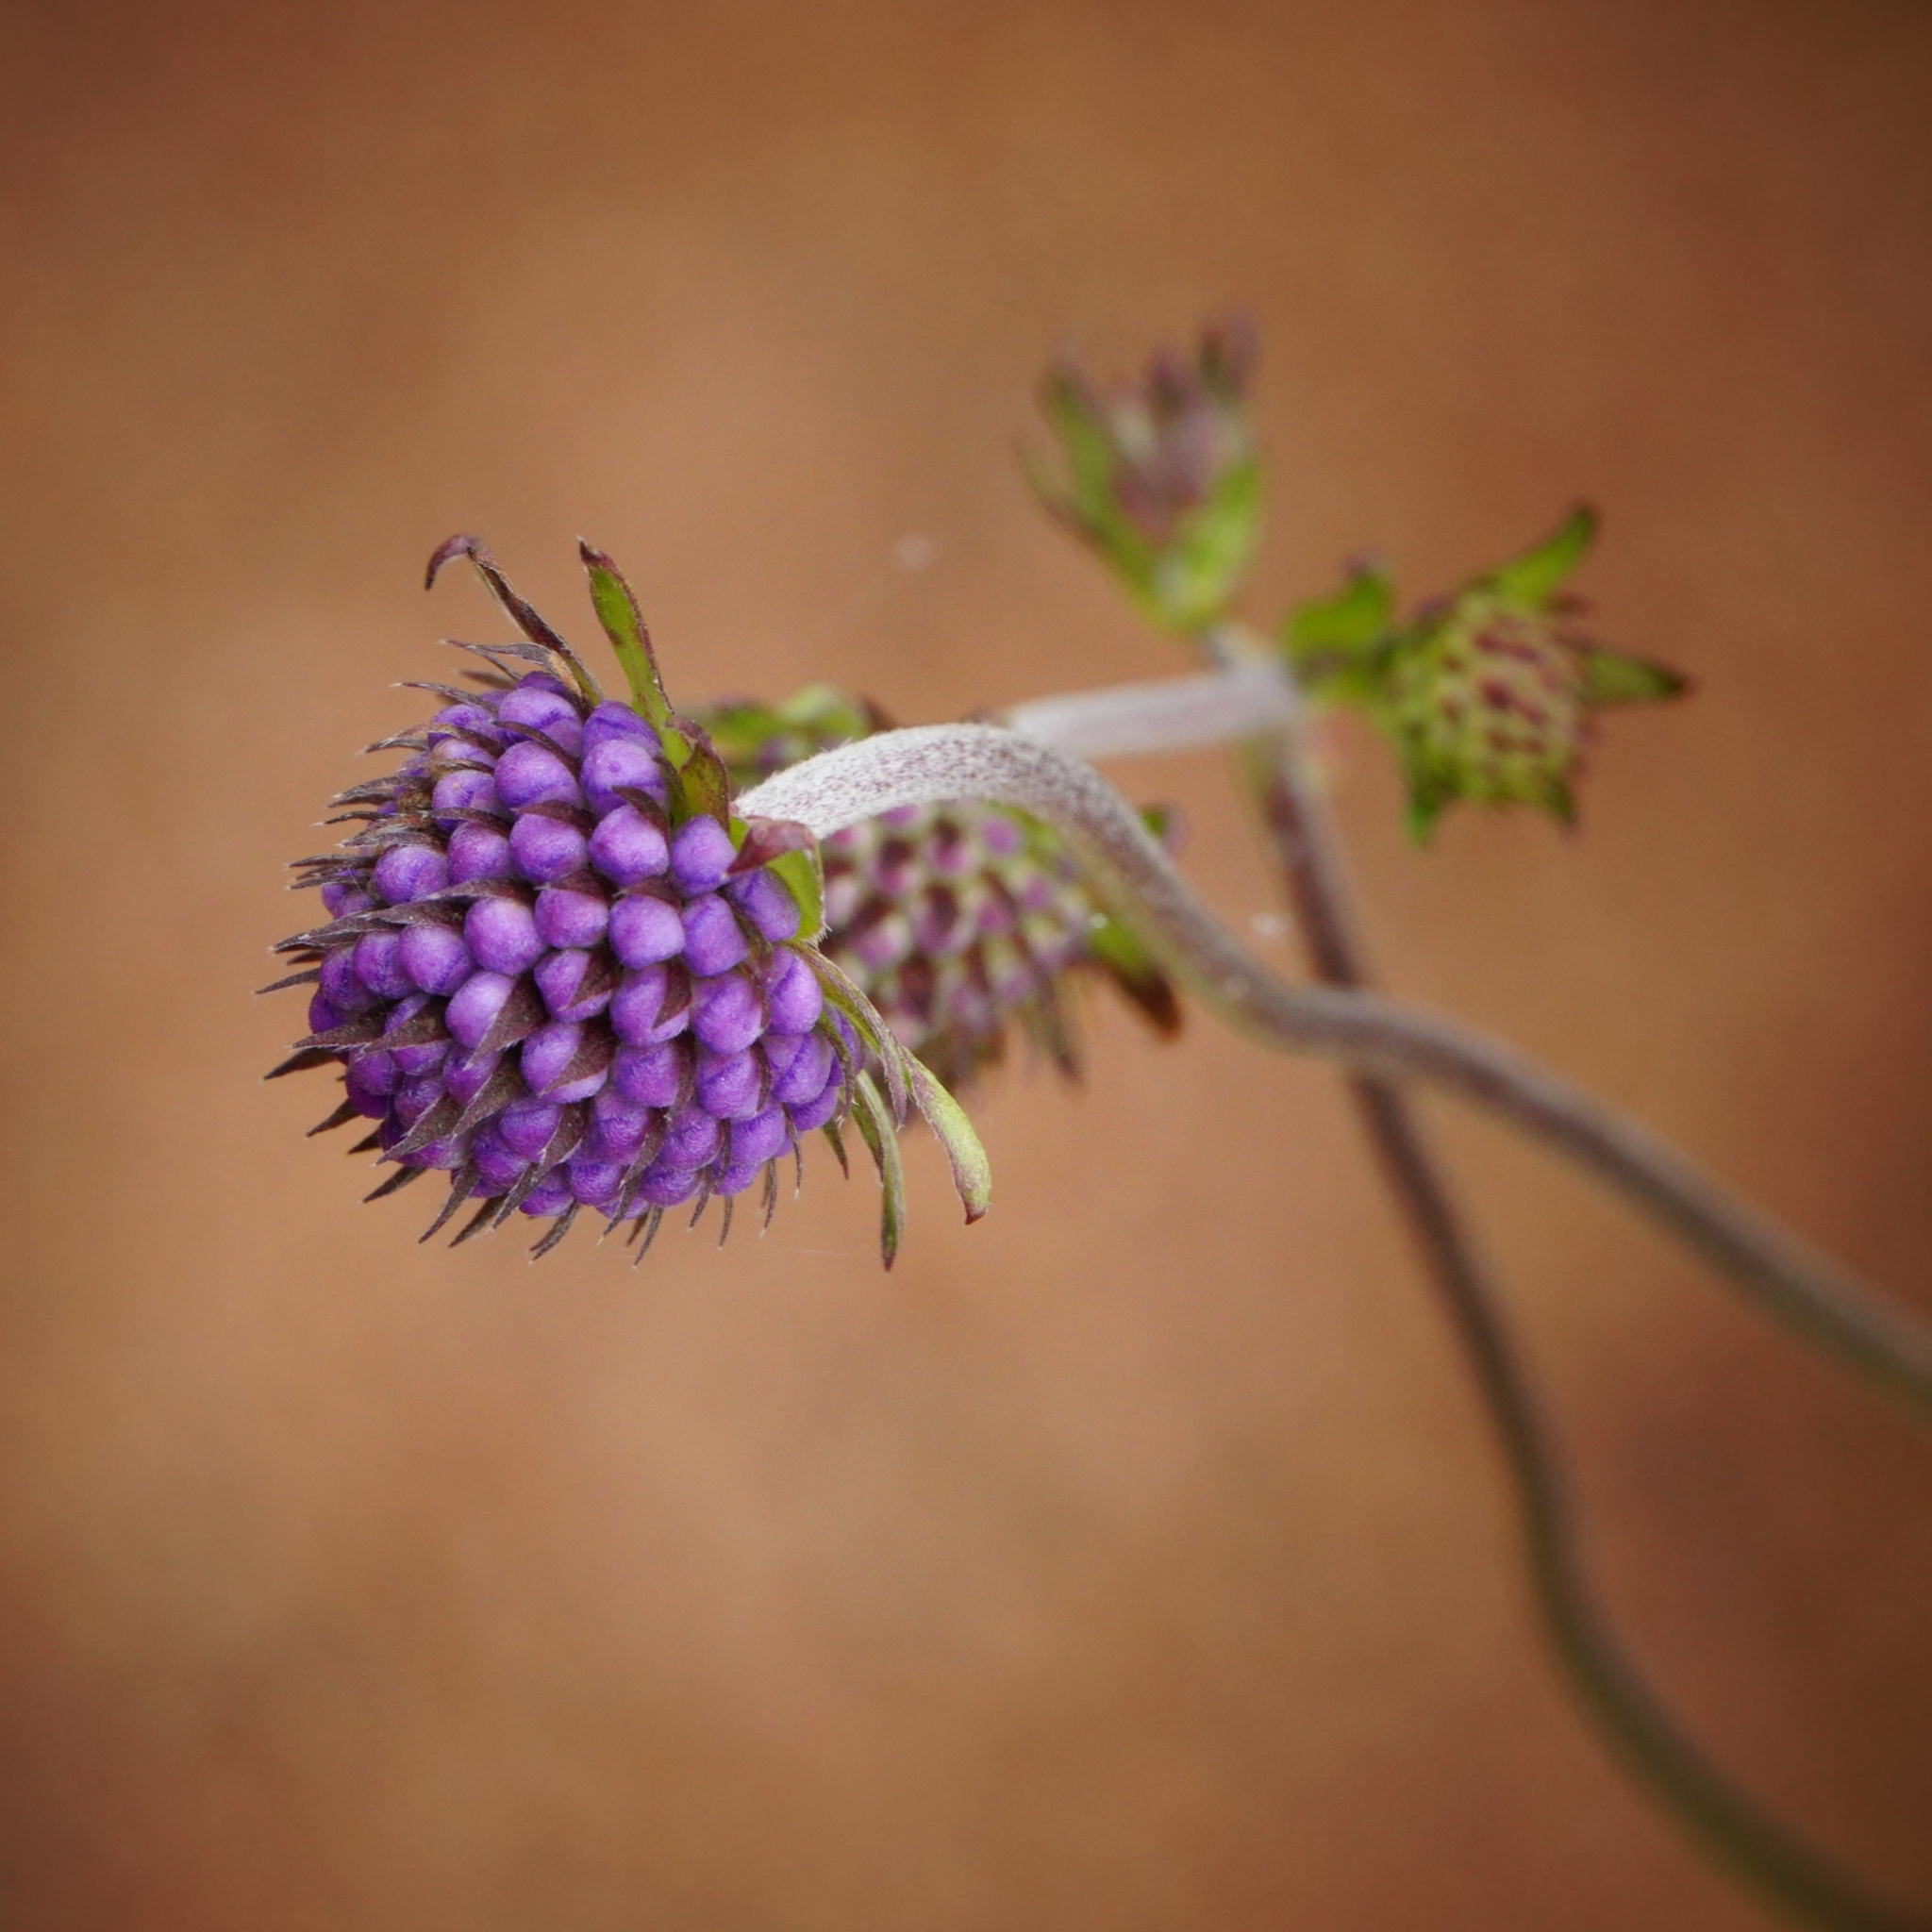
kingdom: Plantae
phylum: Tracheophyta
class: Magnoliopsida
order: Dipsacales
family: Caprifoliaceae
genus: Succisa
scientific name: Succisa pratensis
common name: Devil's-bit
